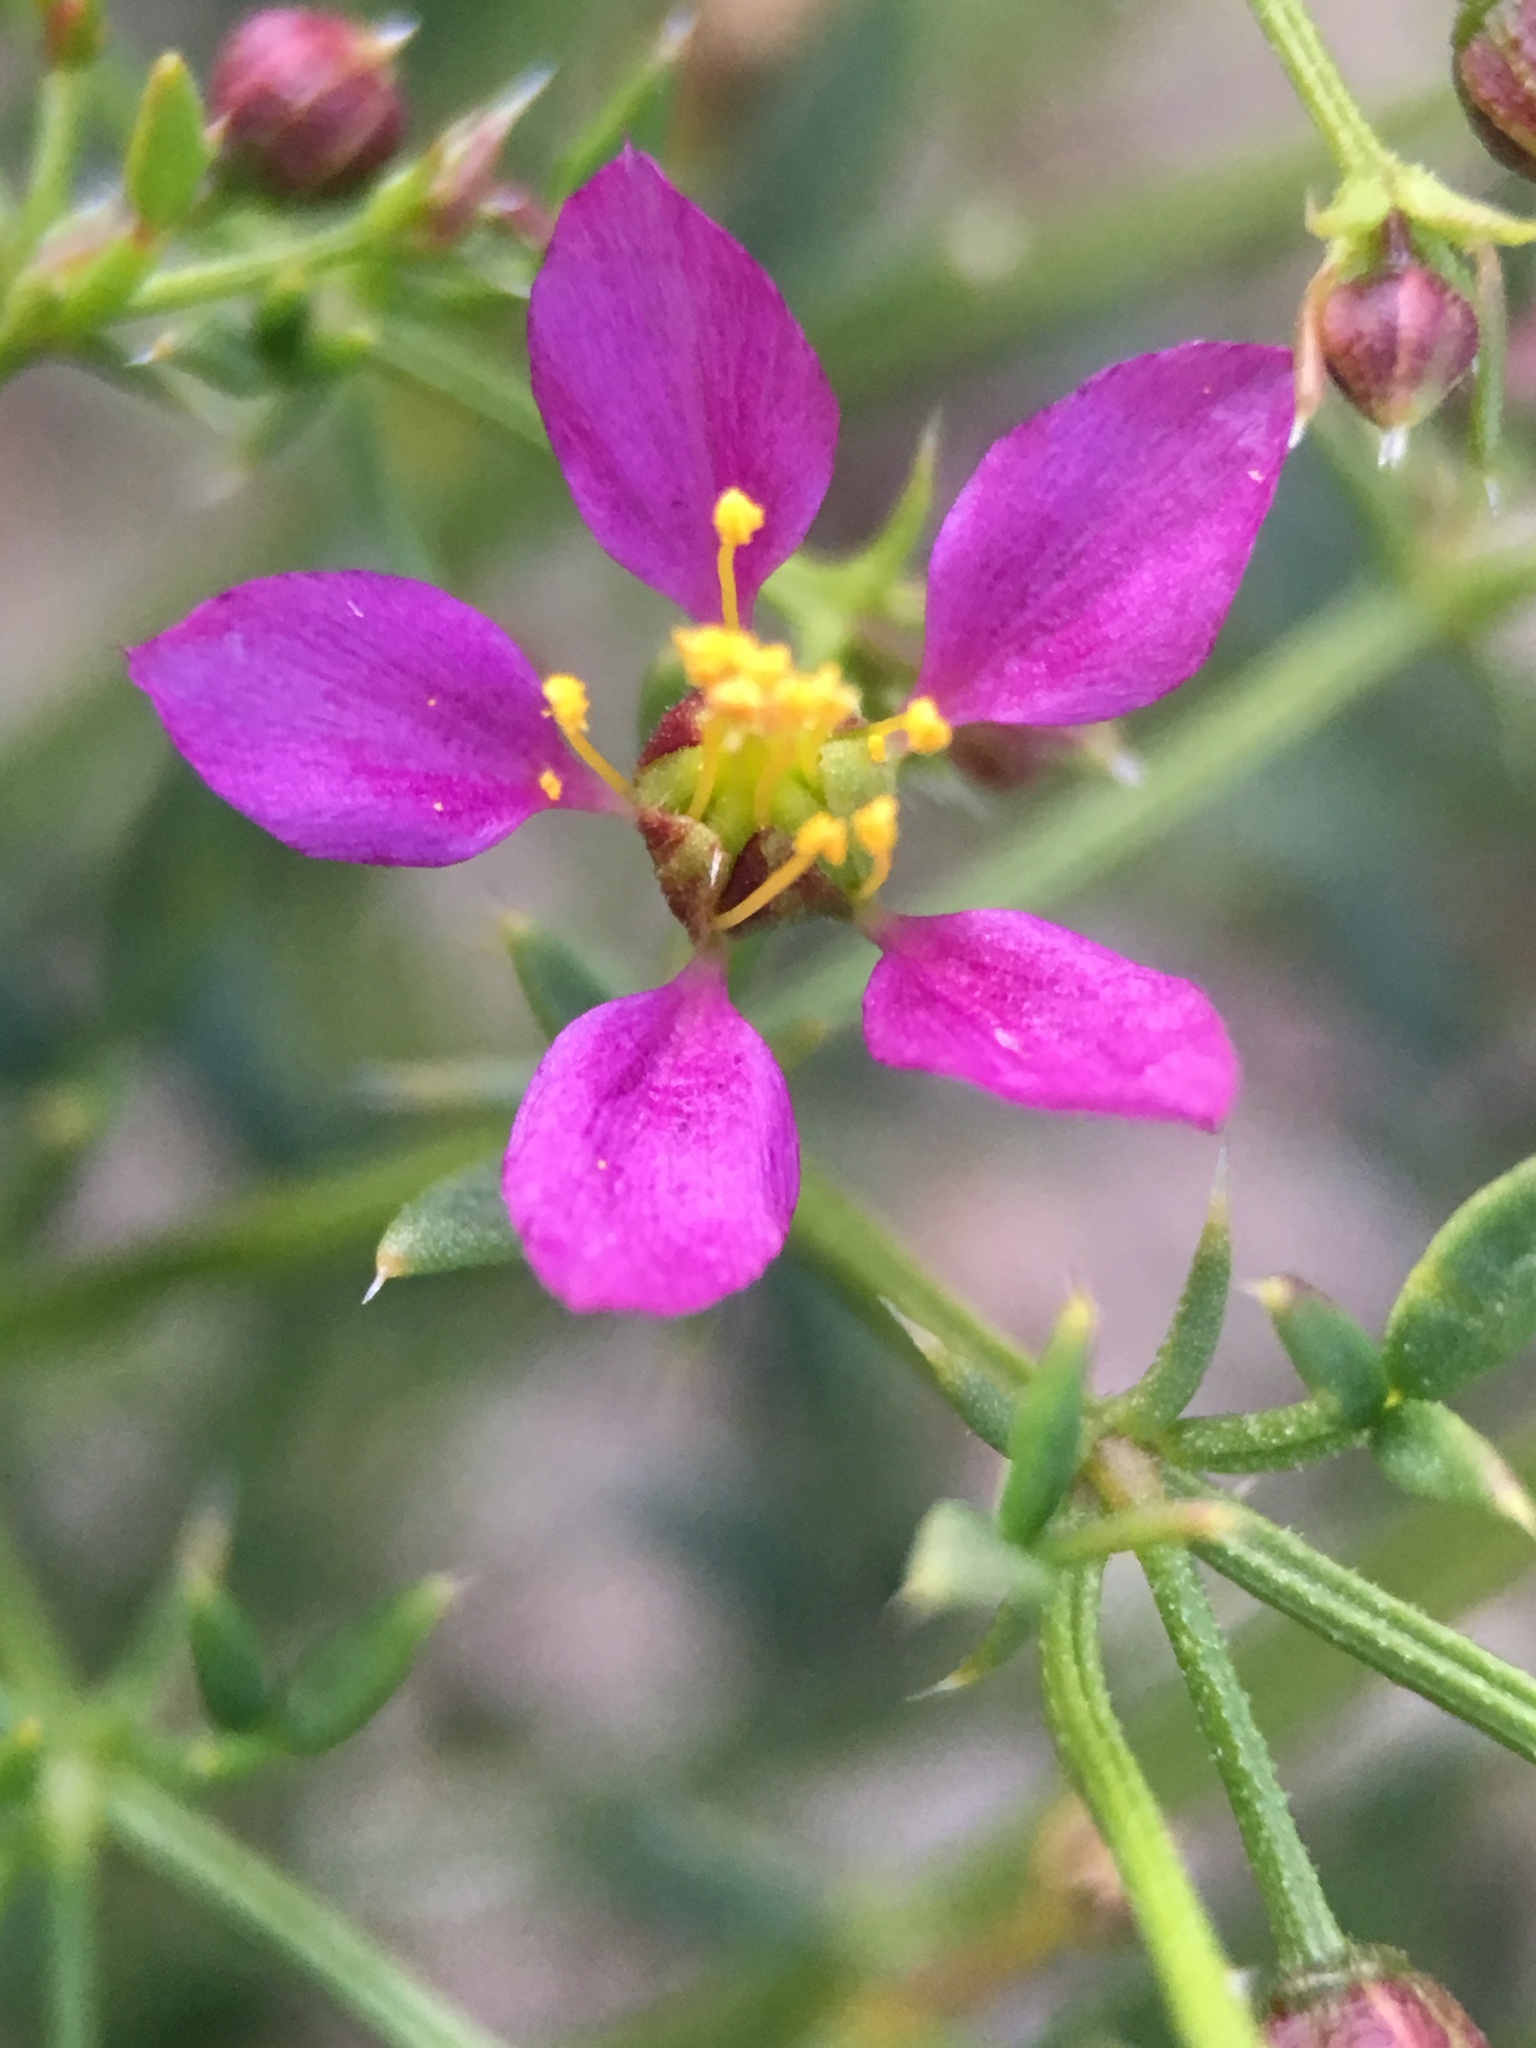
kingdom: Plantae
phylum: Tracheophyta
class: Magnoliopsida
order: Zygophyllales
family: Zygophyllaceae
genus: Fagonia
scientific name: Fagonia laevis
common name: California fagonbush
